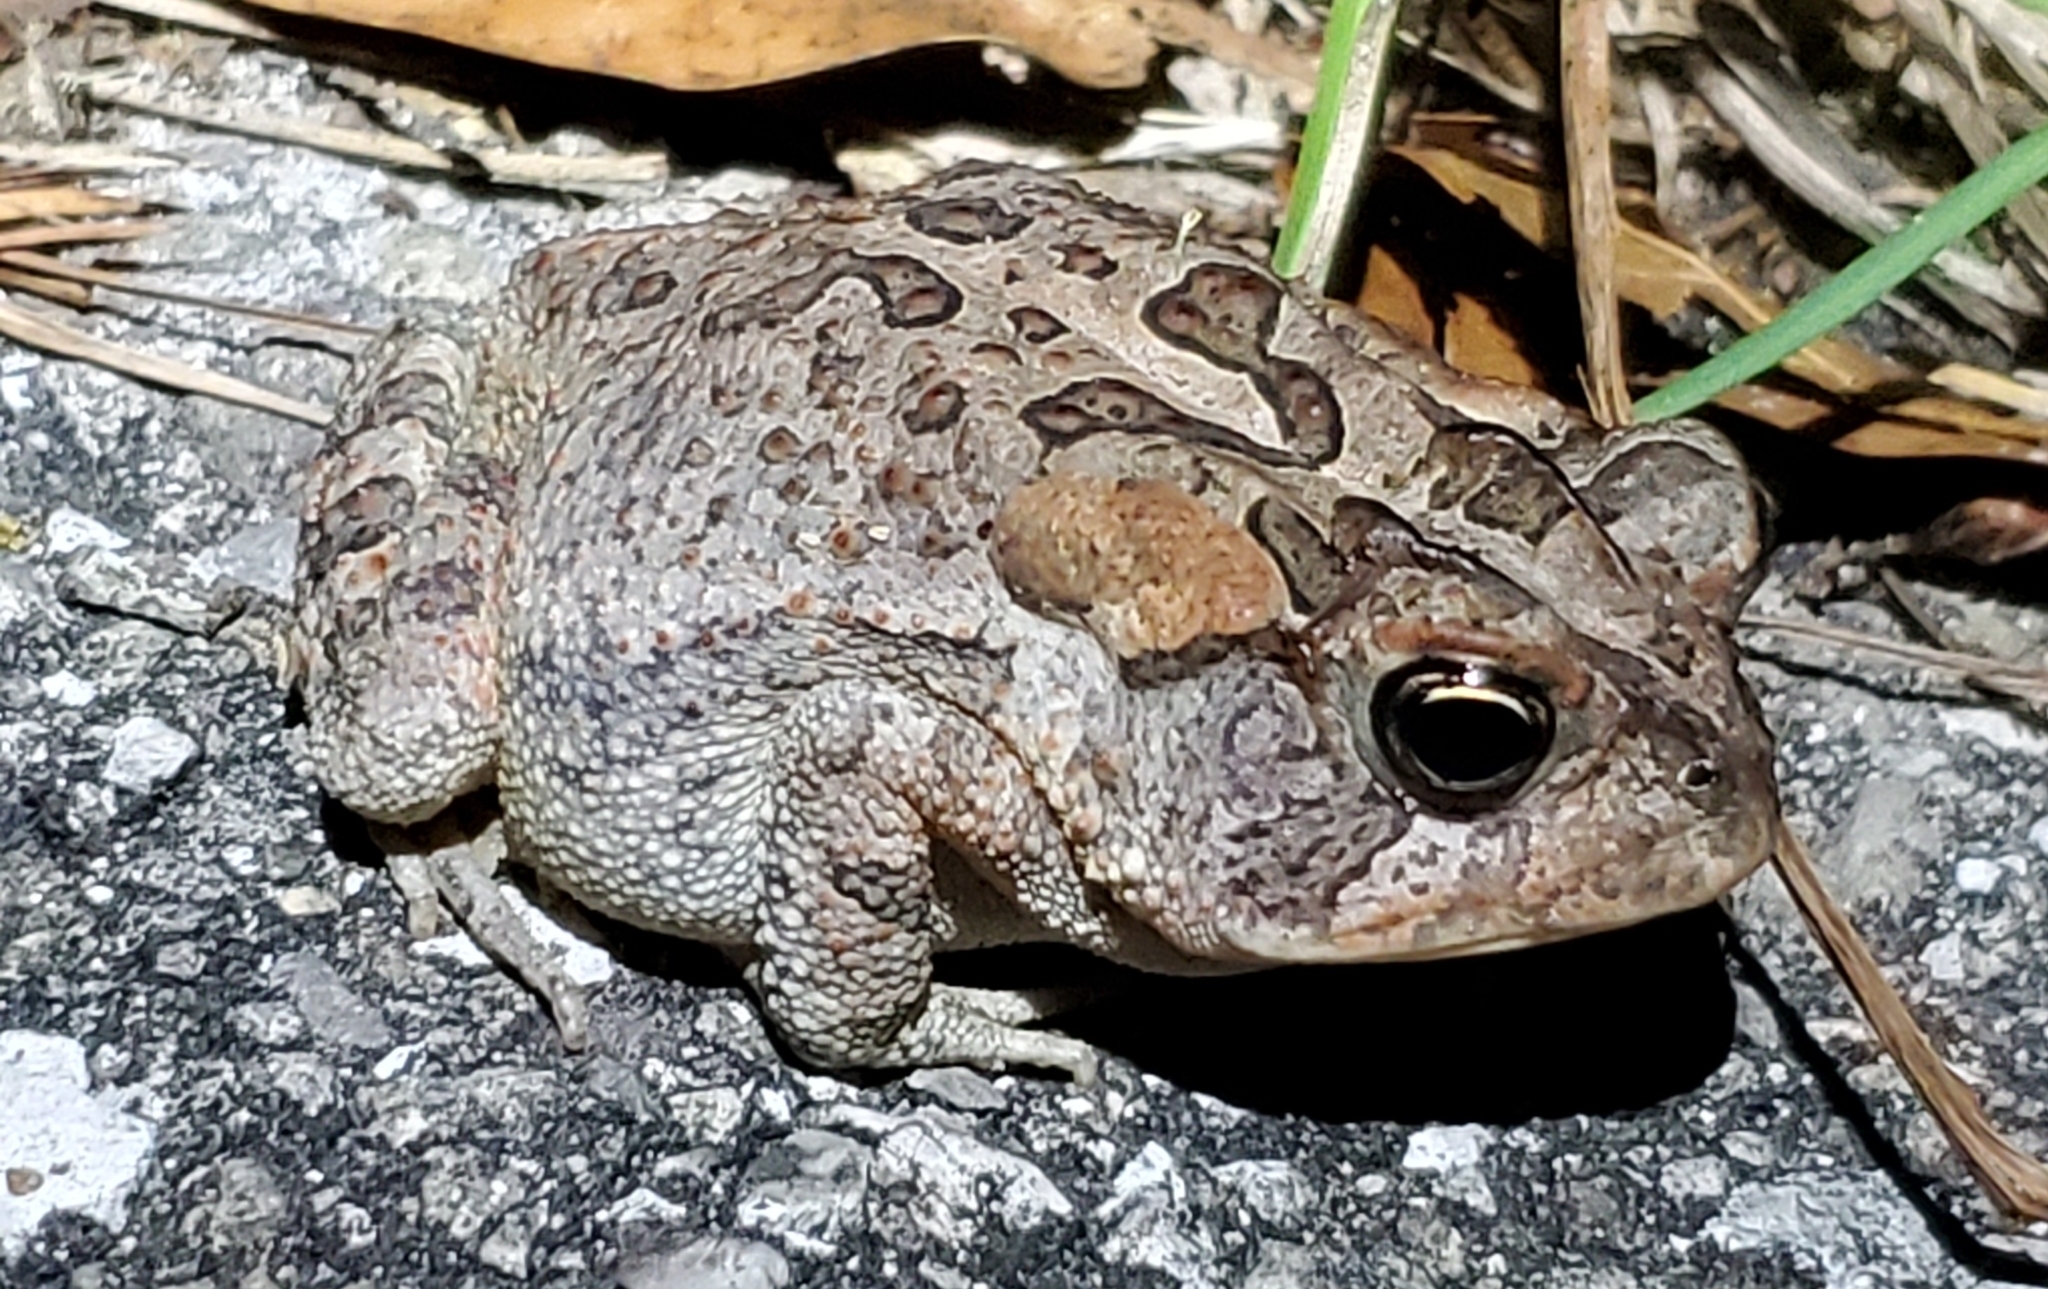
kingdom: Animalia
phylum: Chordata
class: Amphibia
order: Anura
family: Bufonidae
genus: Anaxyrus
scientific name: Anaxyrus terrestris
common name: Southern toad
